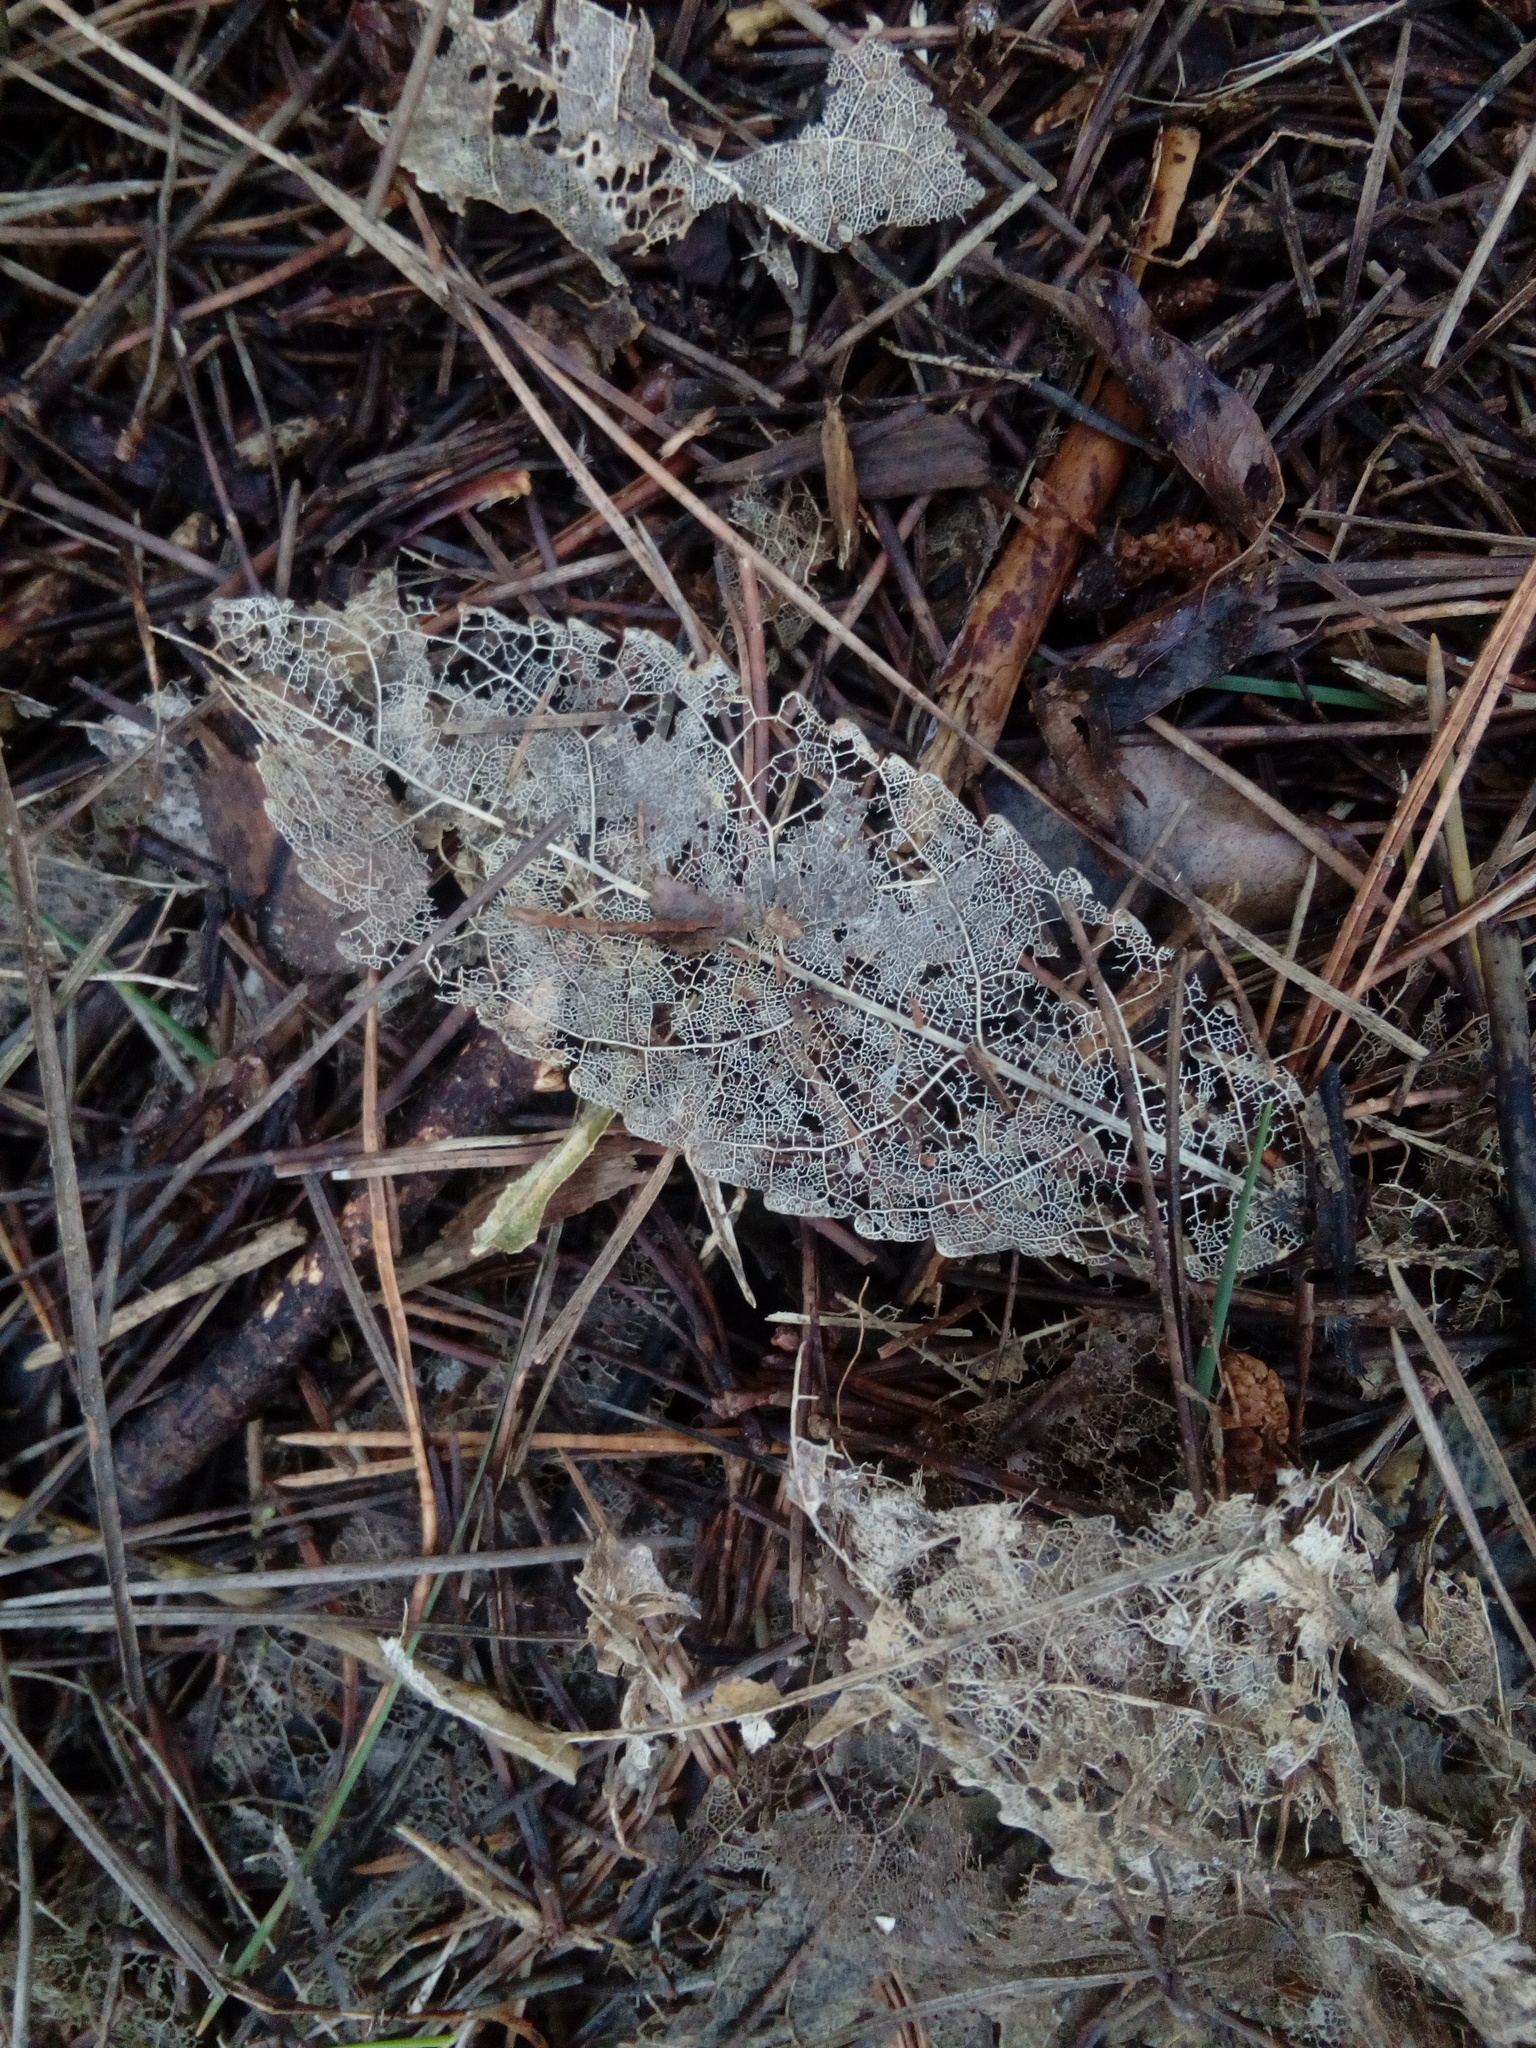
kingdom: Plantae
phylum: Tracheophyta
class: Magnoliopsida
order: Malpighiales
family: Violaceae
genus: Melicytus
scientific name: Melicytus ramiflorus
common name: Mahoe
